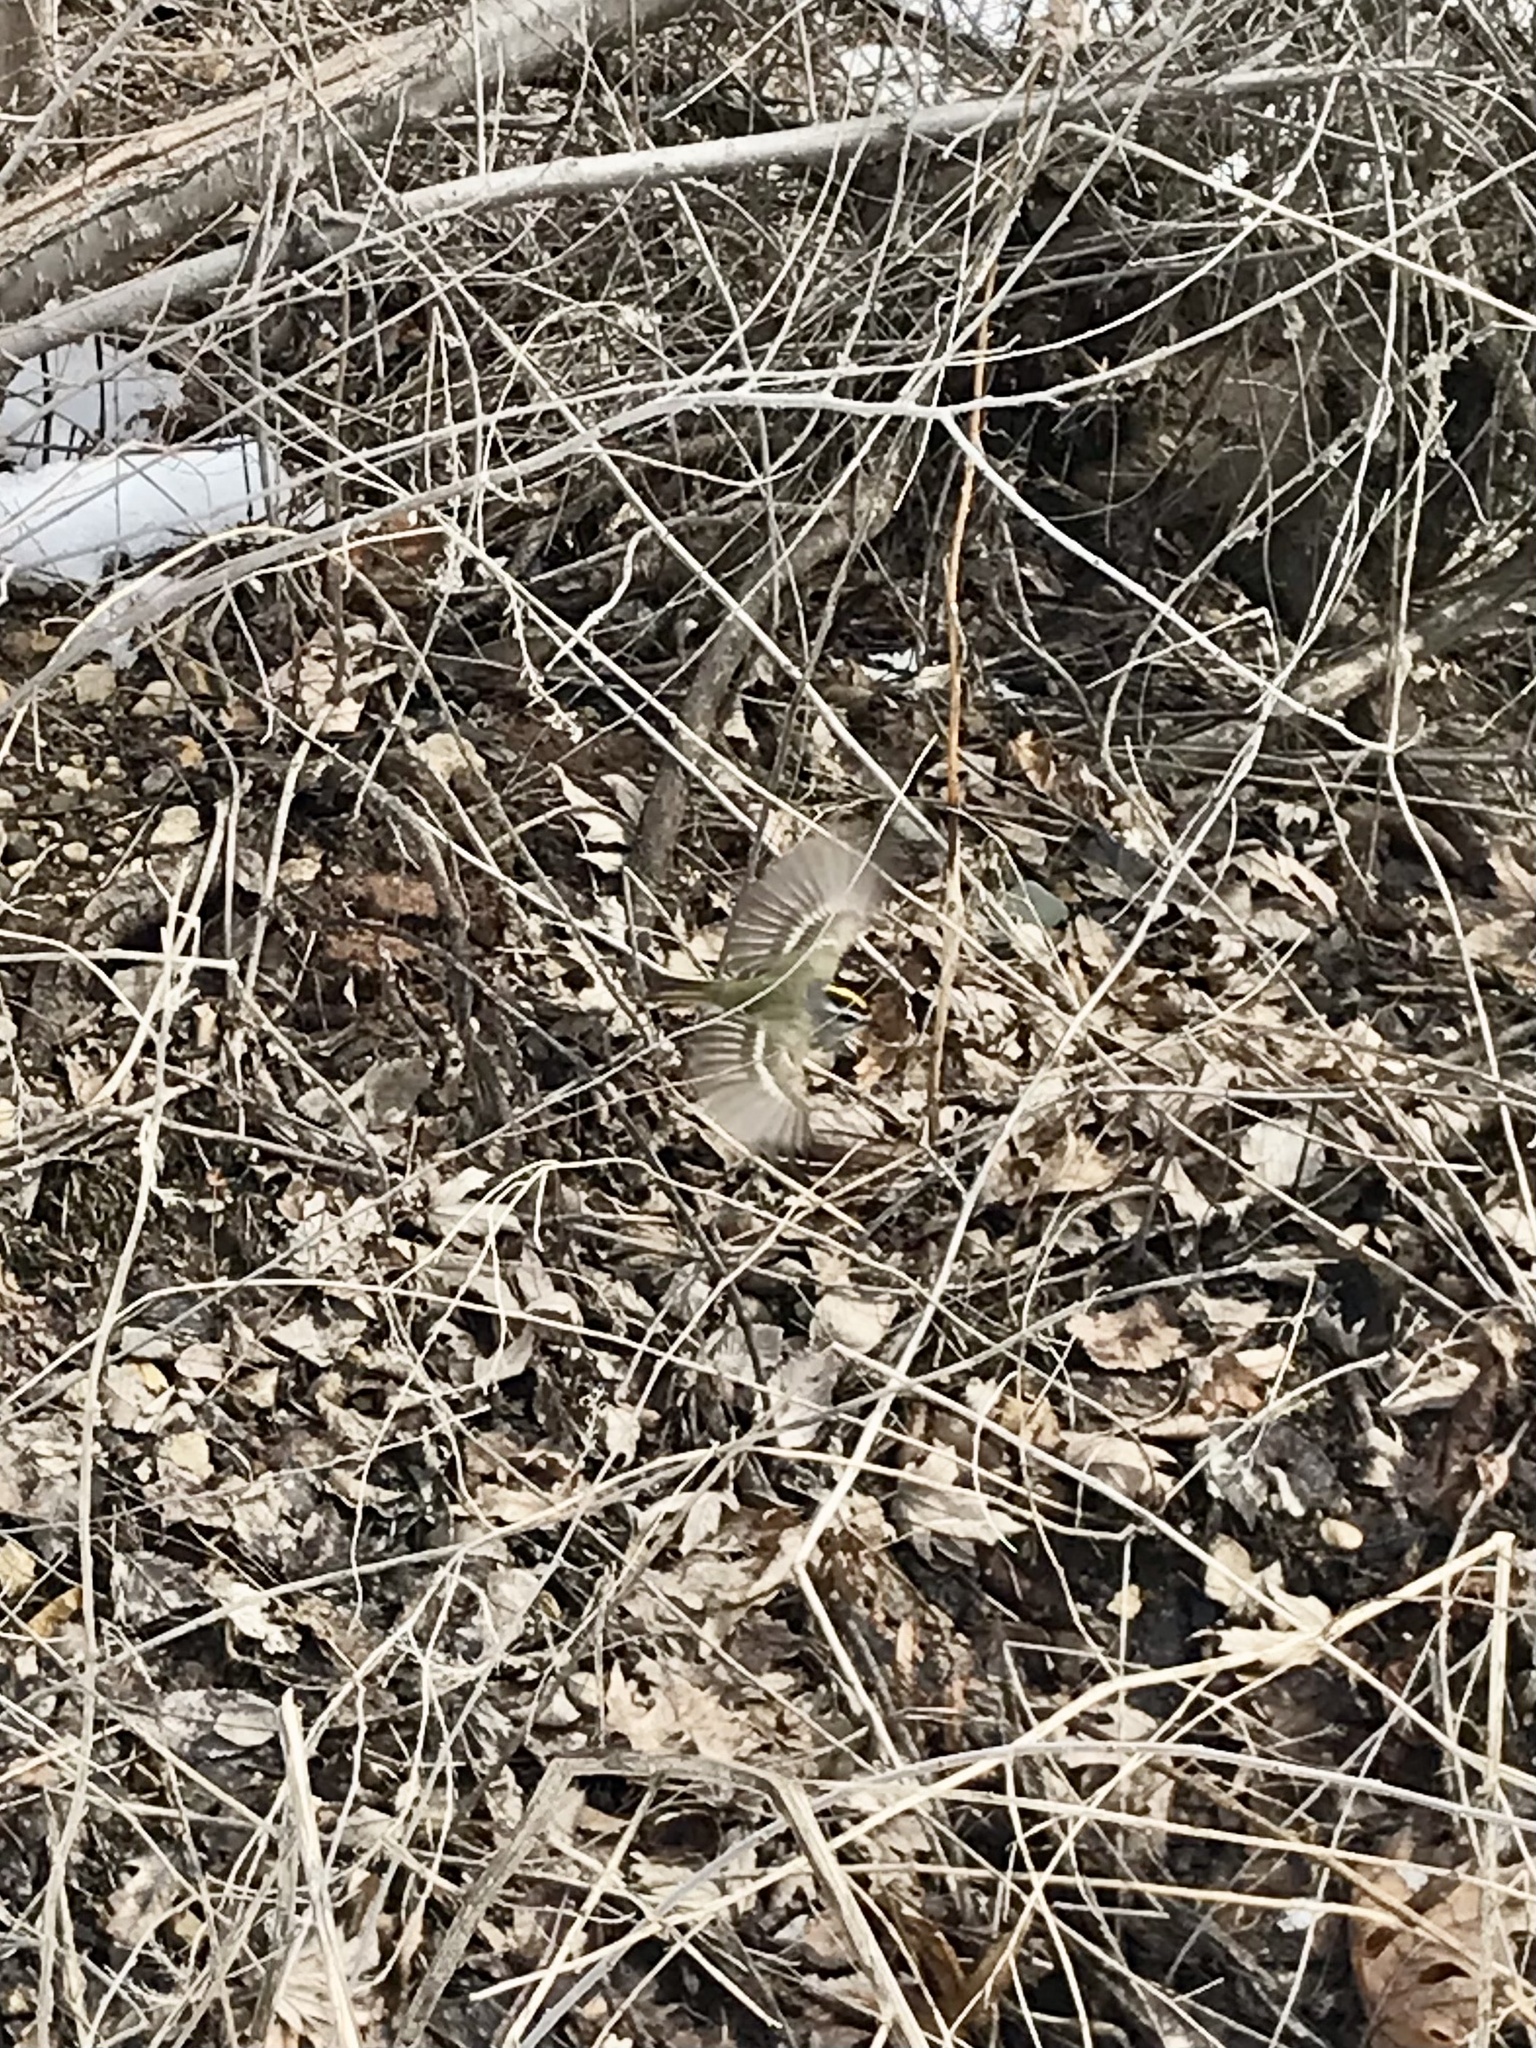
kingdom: Animalia
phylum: Chordata
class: Aves
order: Passeriformes
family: Regulidae
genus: Regulus
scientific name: Regulus satrapa
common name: Golden-crowned kinglet
